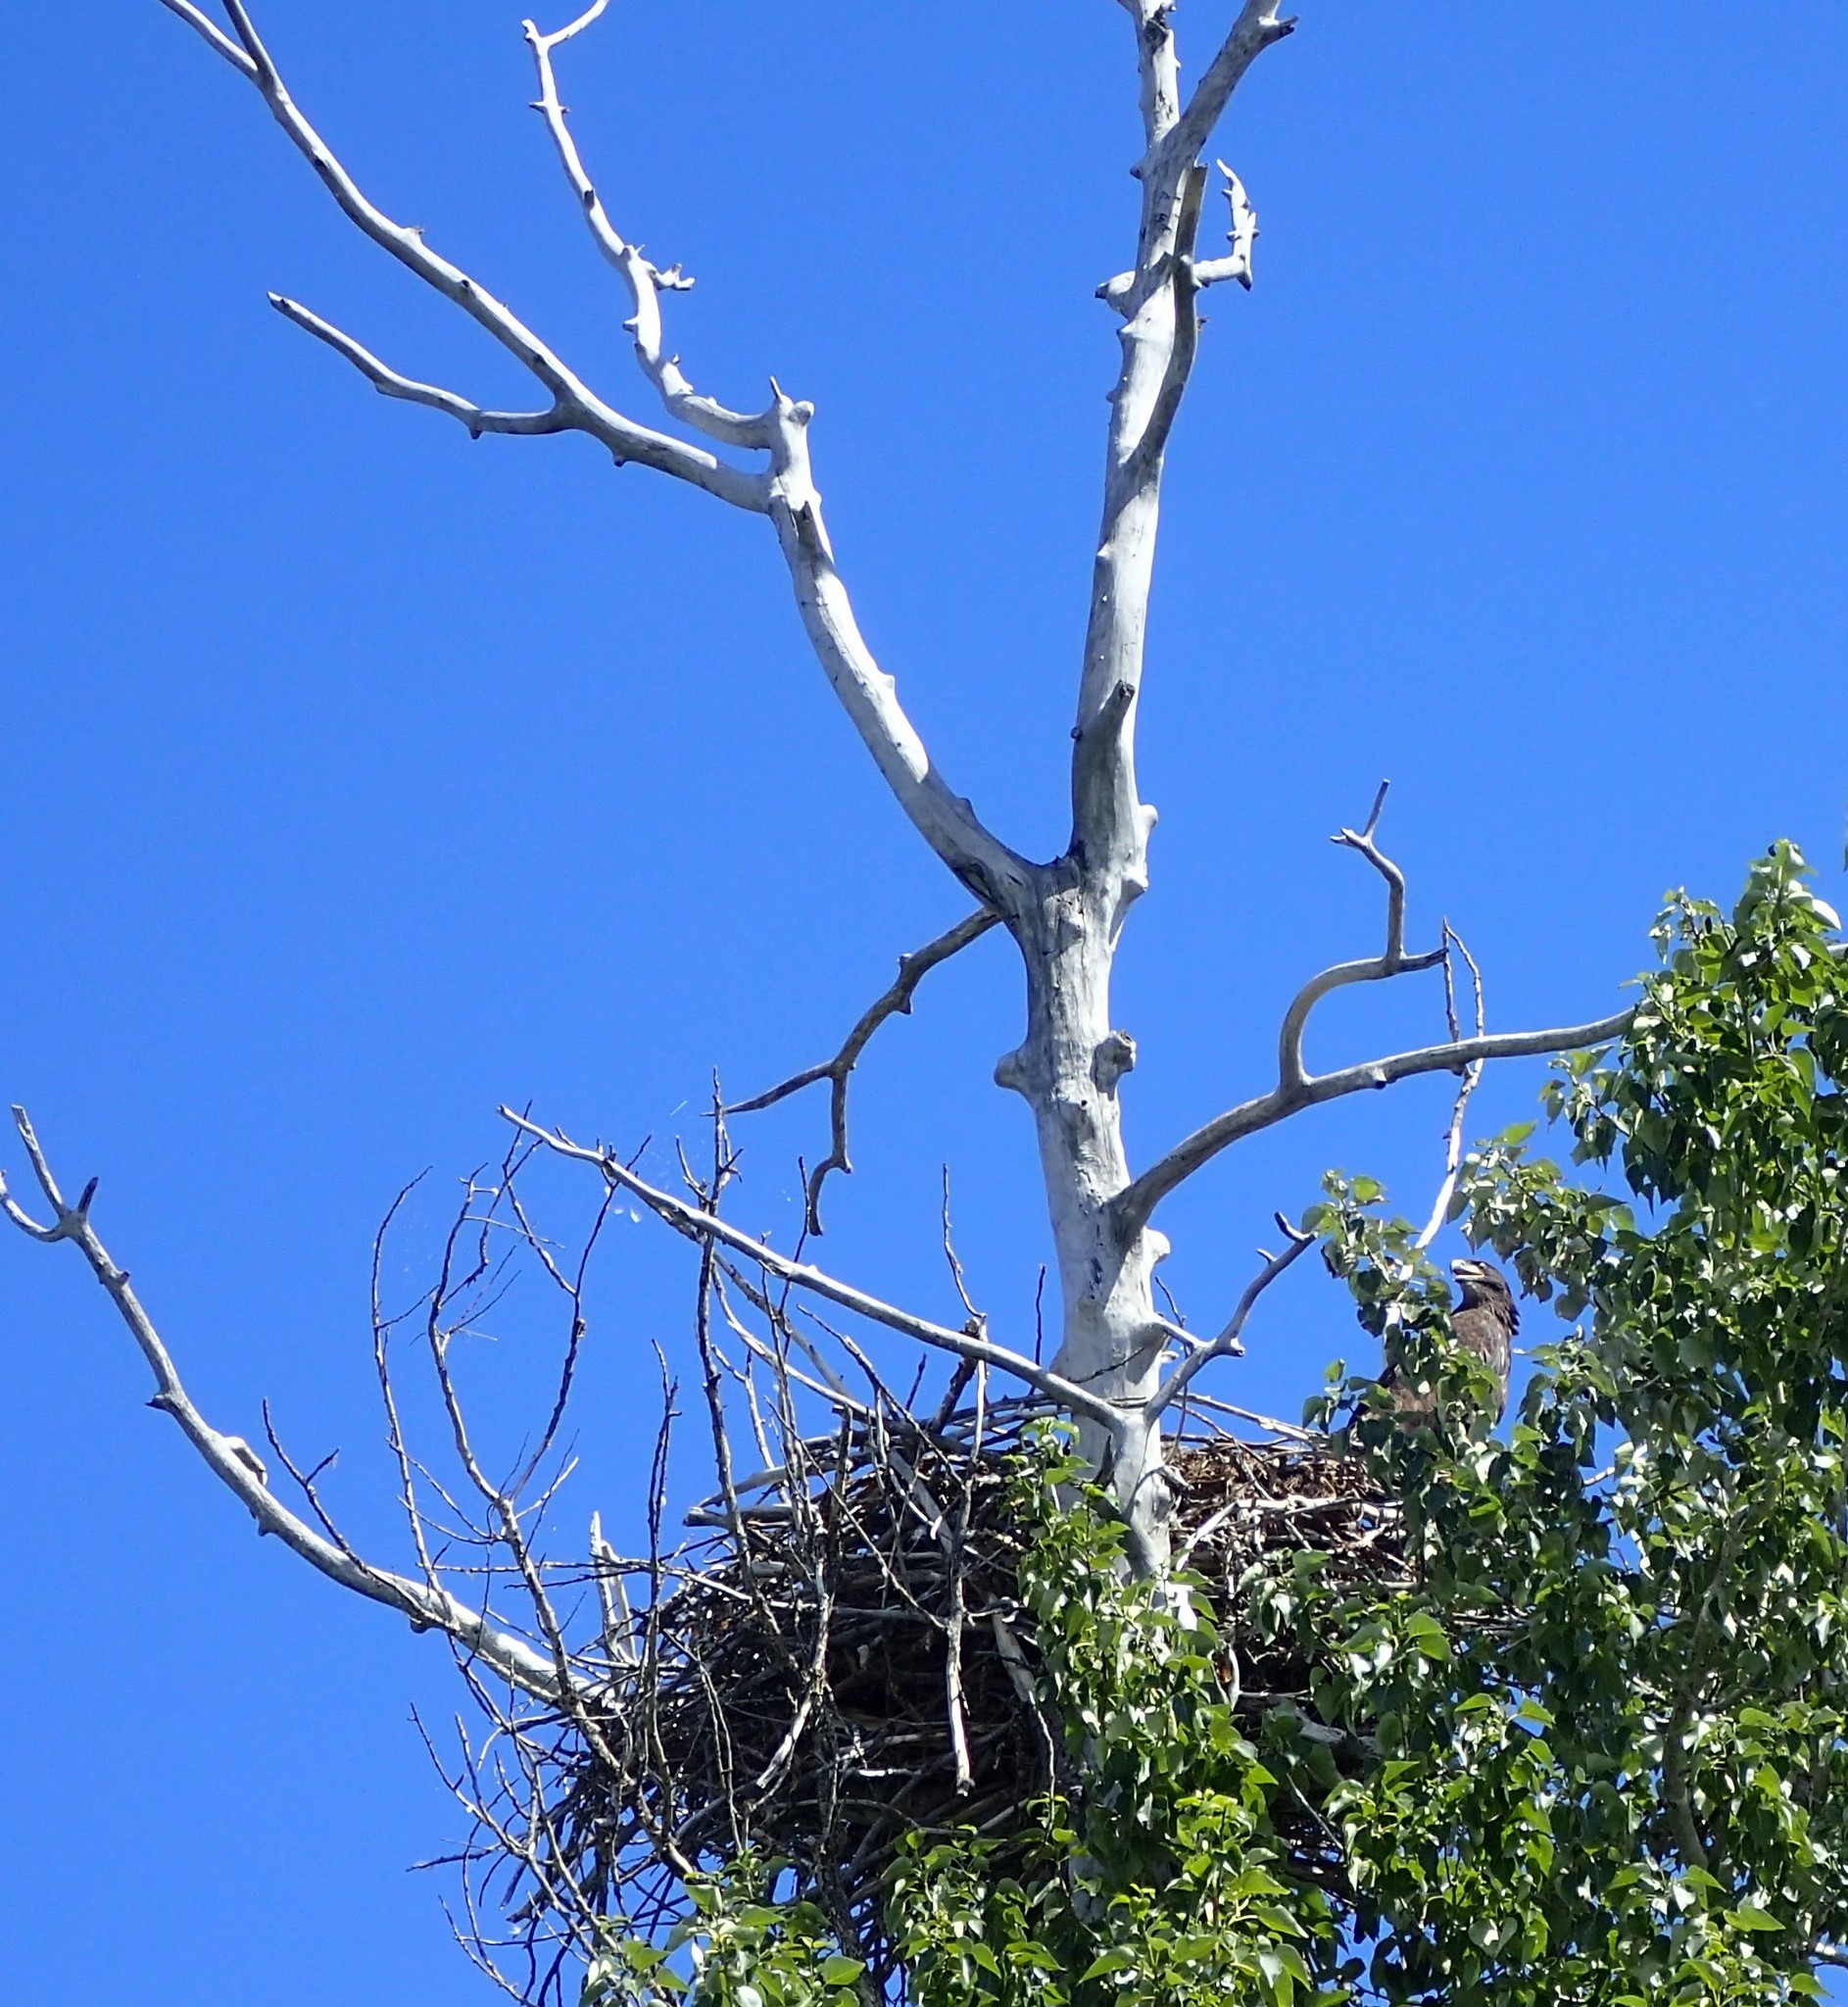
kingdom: Animalia
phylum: Chordata
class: Aves
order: Accipitriformes
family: Accipitridae
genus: Haliaeetus
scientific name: Haliaeetus leucocephalus
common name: Bald eagle
